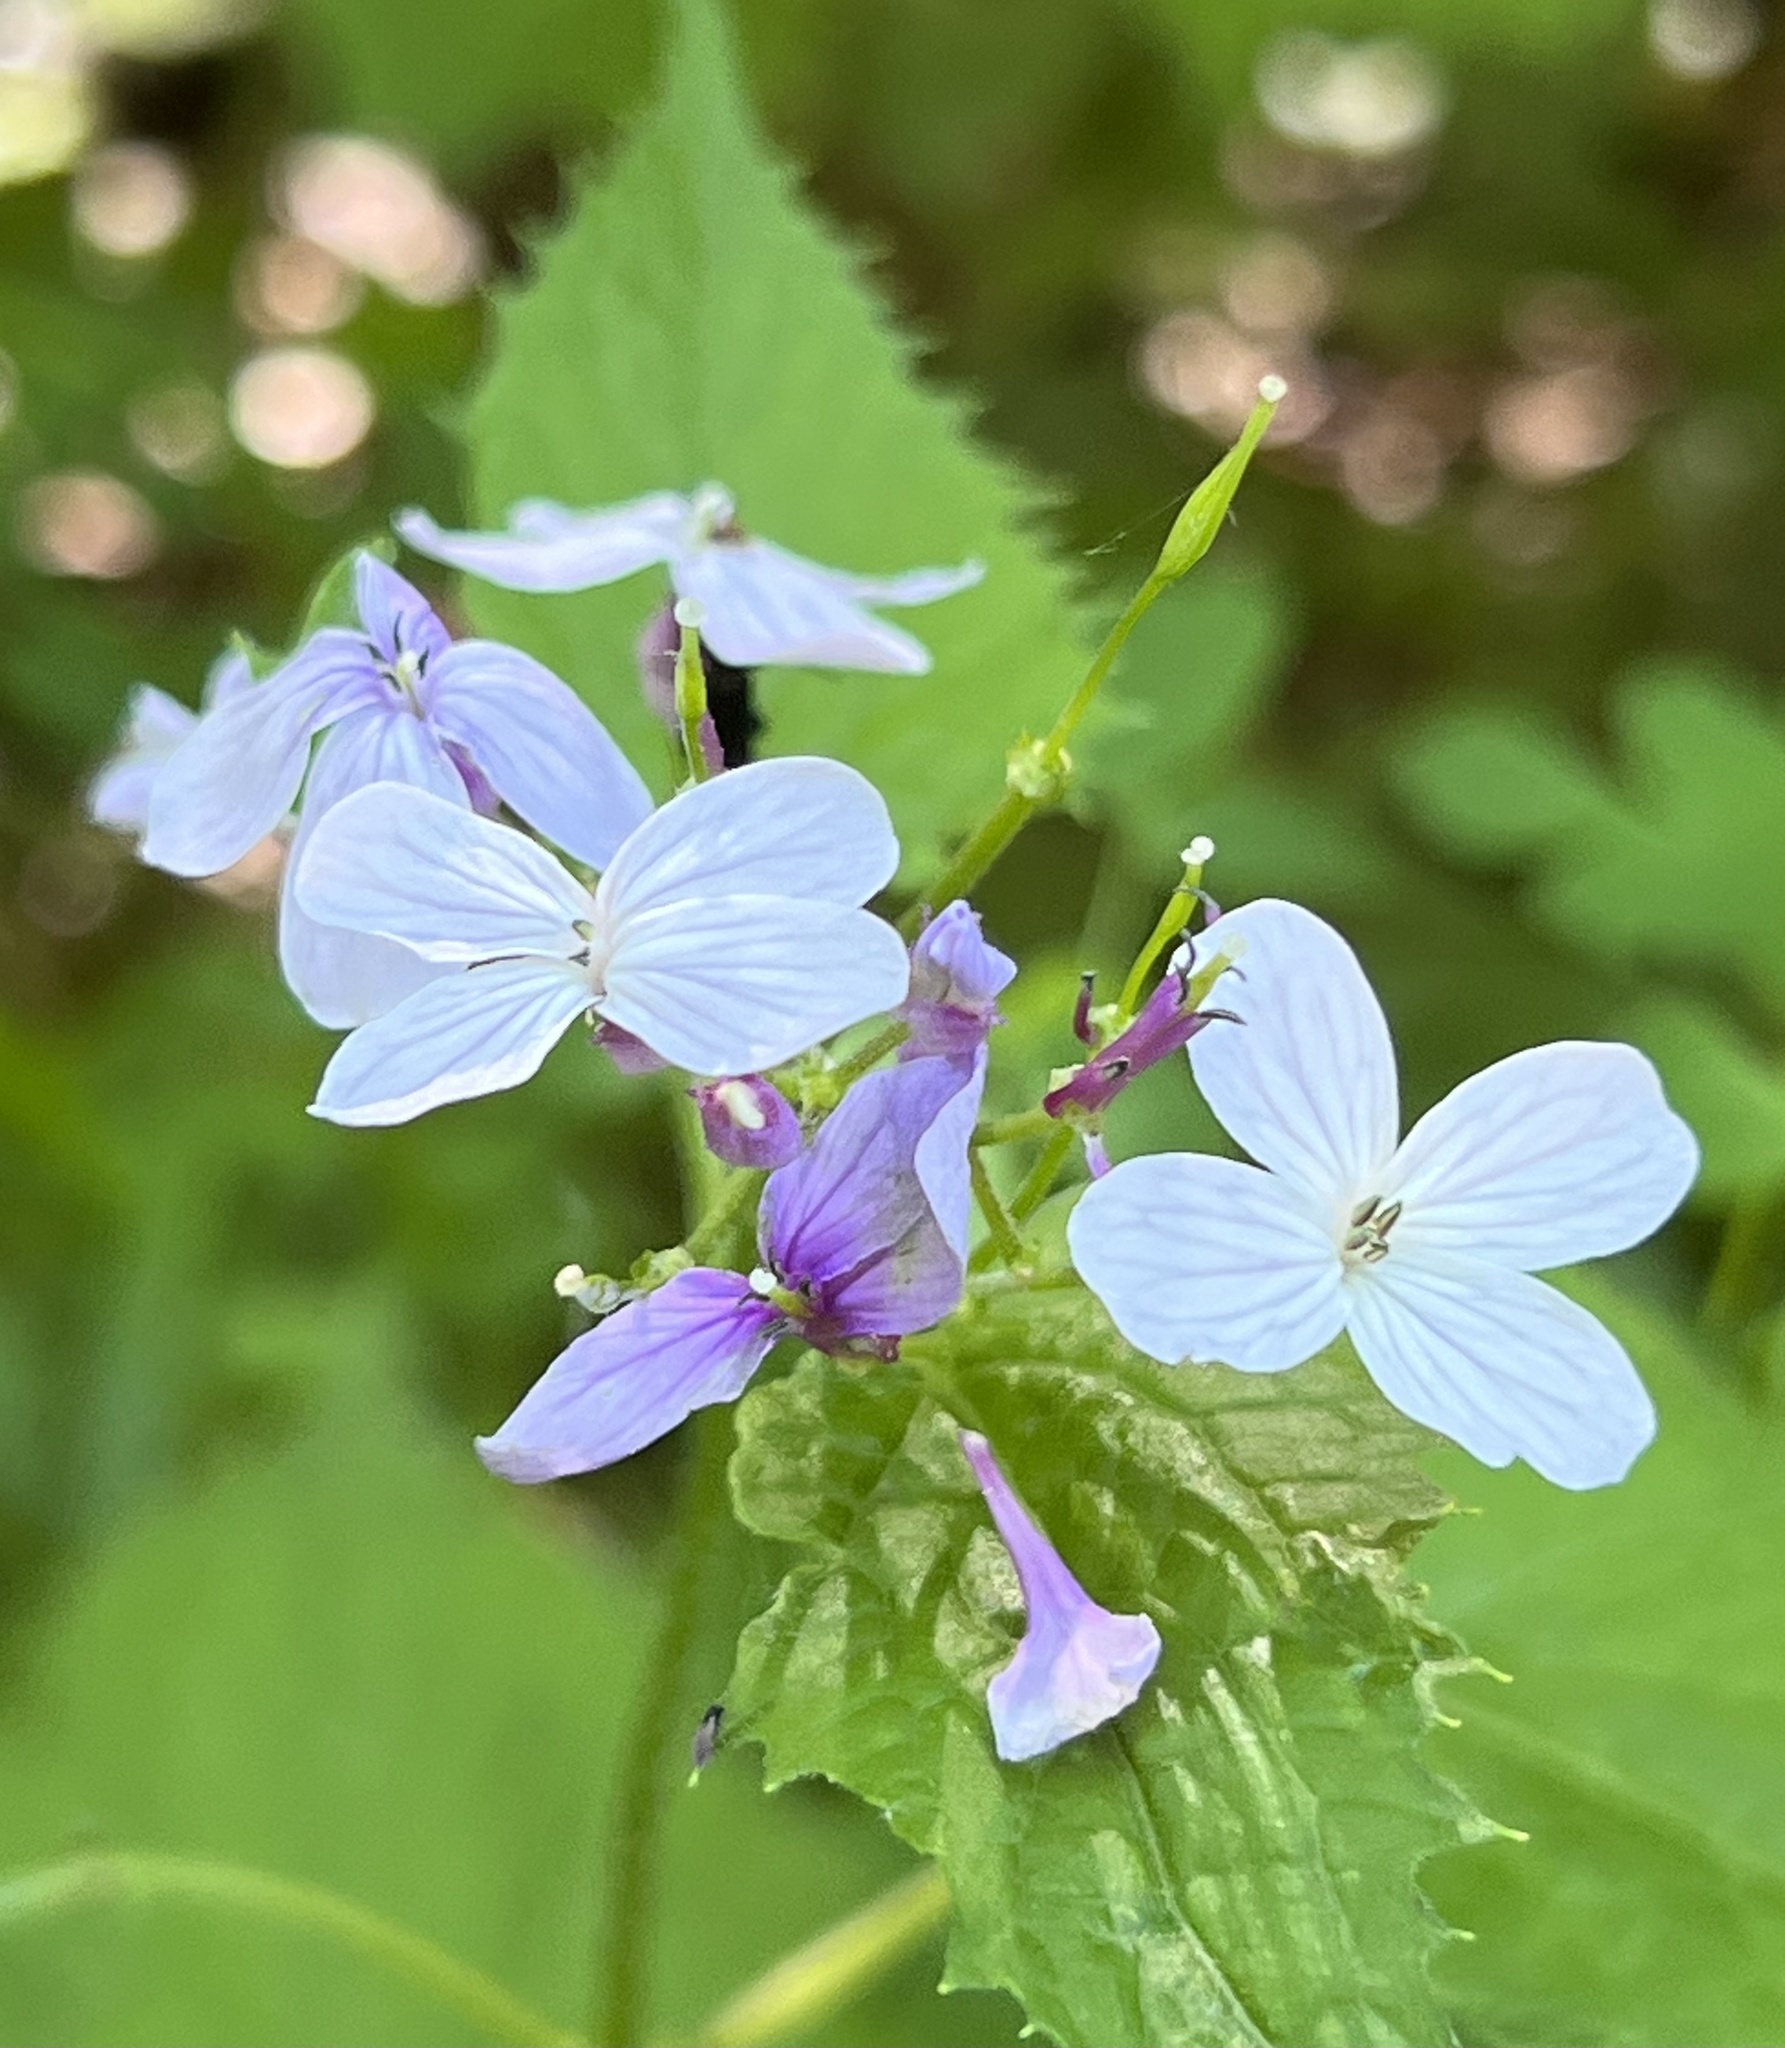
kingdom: Plantae
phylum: Tracheophyta
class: Magnoliopsida
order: Brassicales
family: Brassicaceae
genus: Lunaria
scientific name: Lunaria rediviva
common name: Perennial honesty
